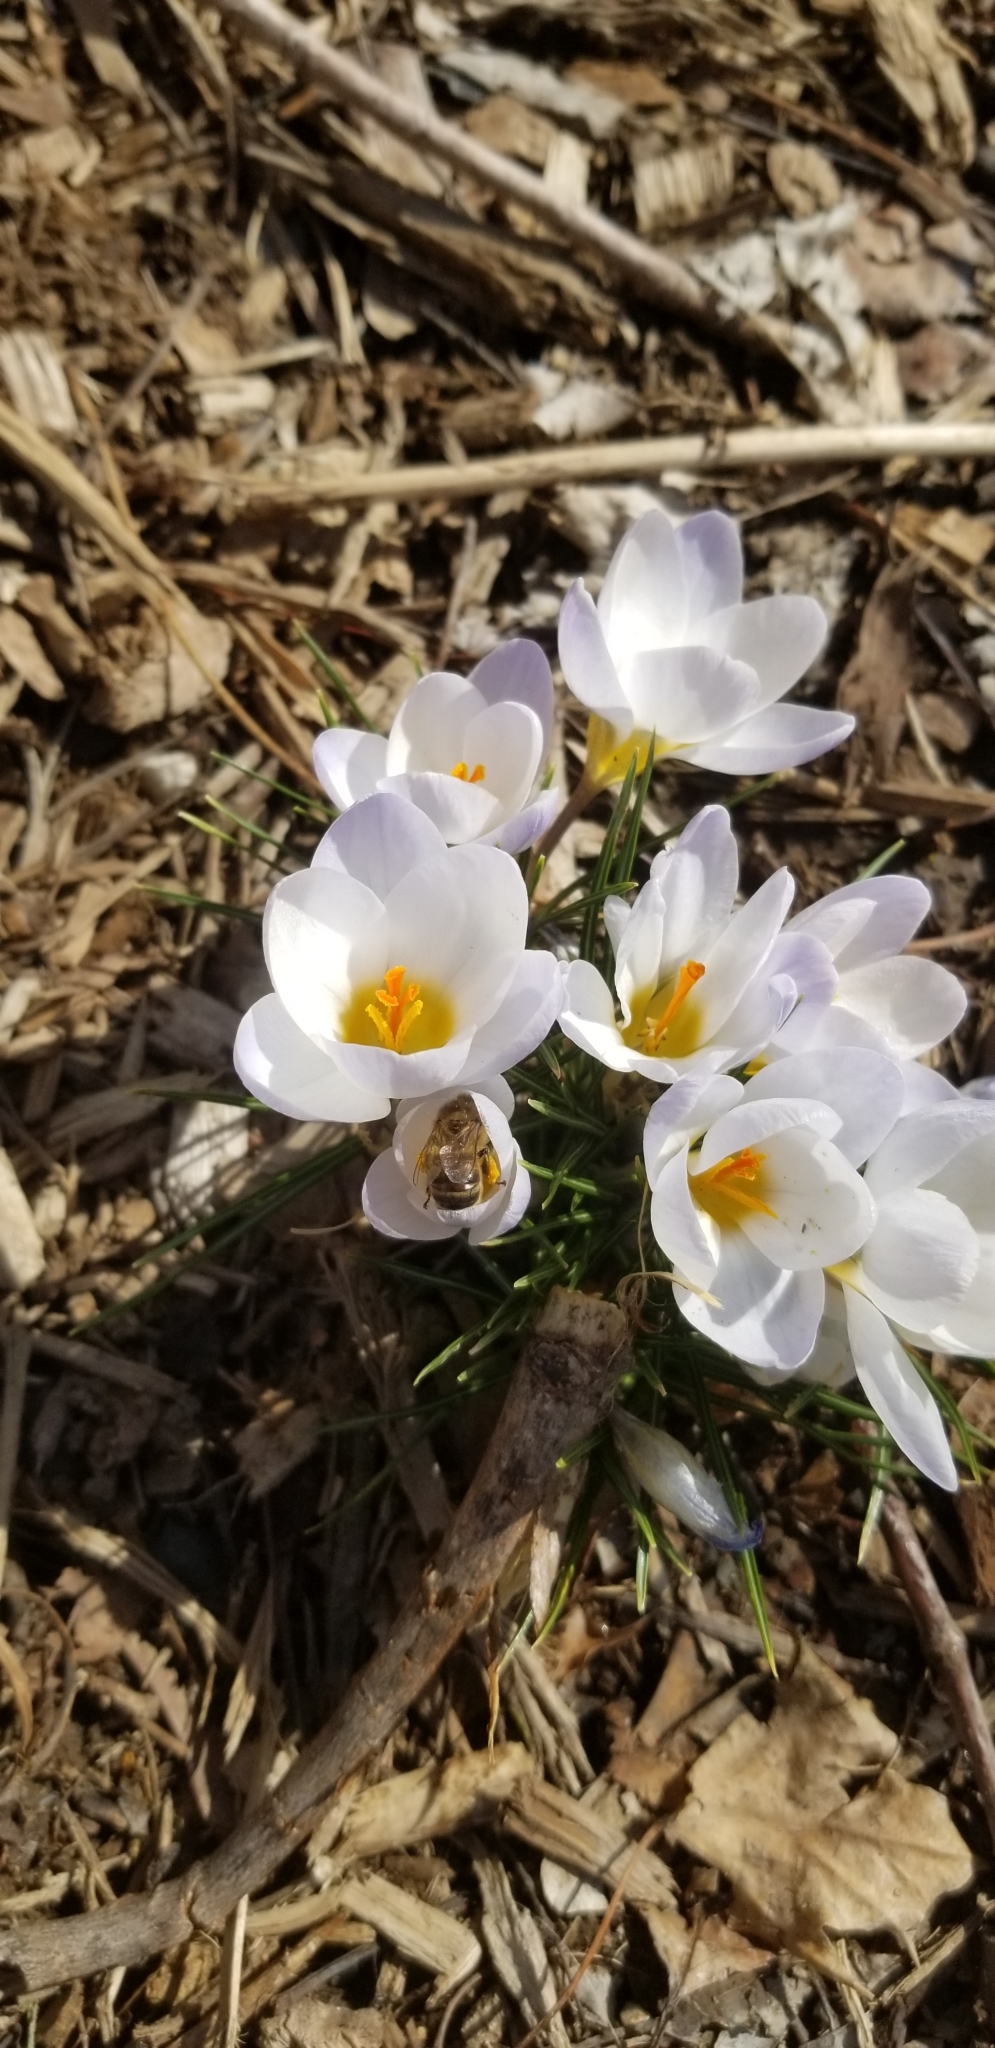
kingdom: Animalia
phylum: Arthropoda
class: Insecta
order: Hymenoptera
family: Apidae
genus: Apis
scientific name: Apis mellifera
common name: Honey bee
